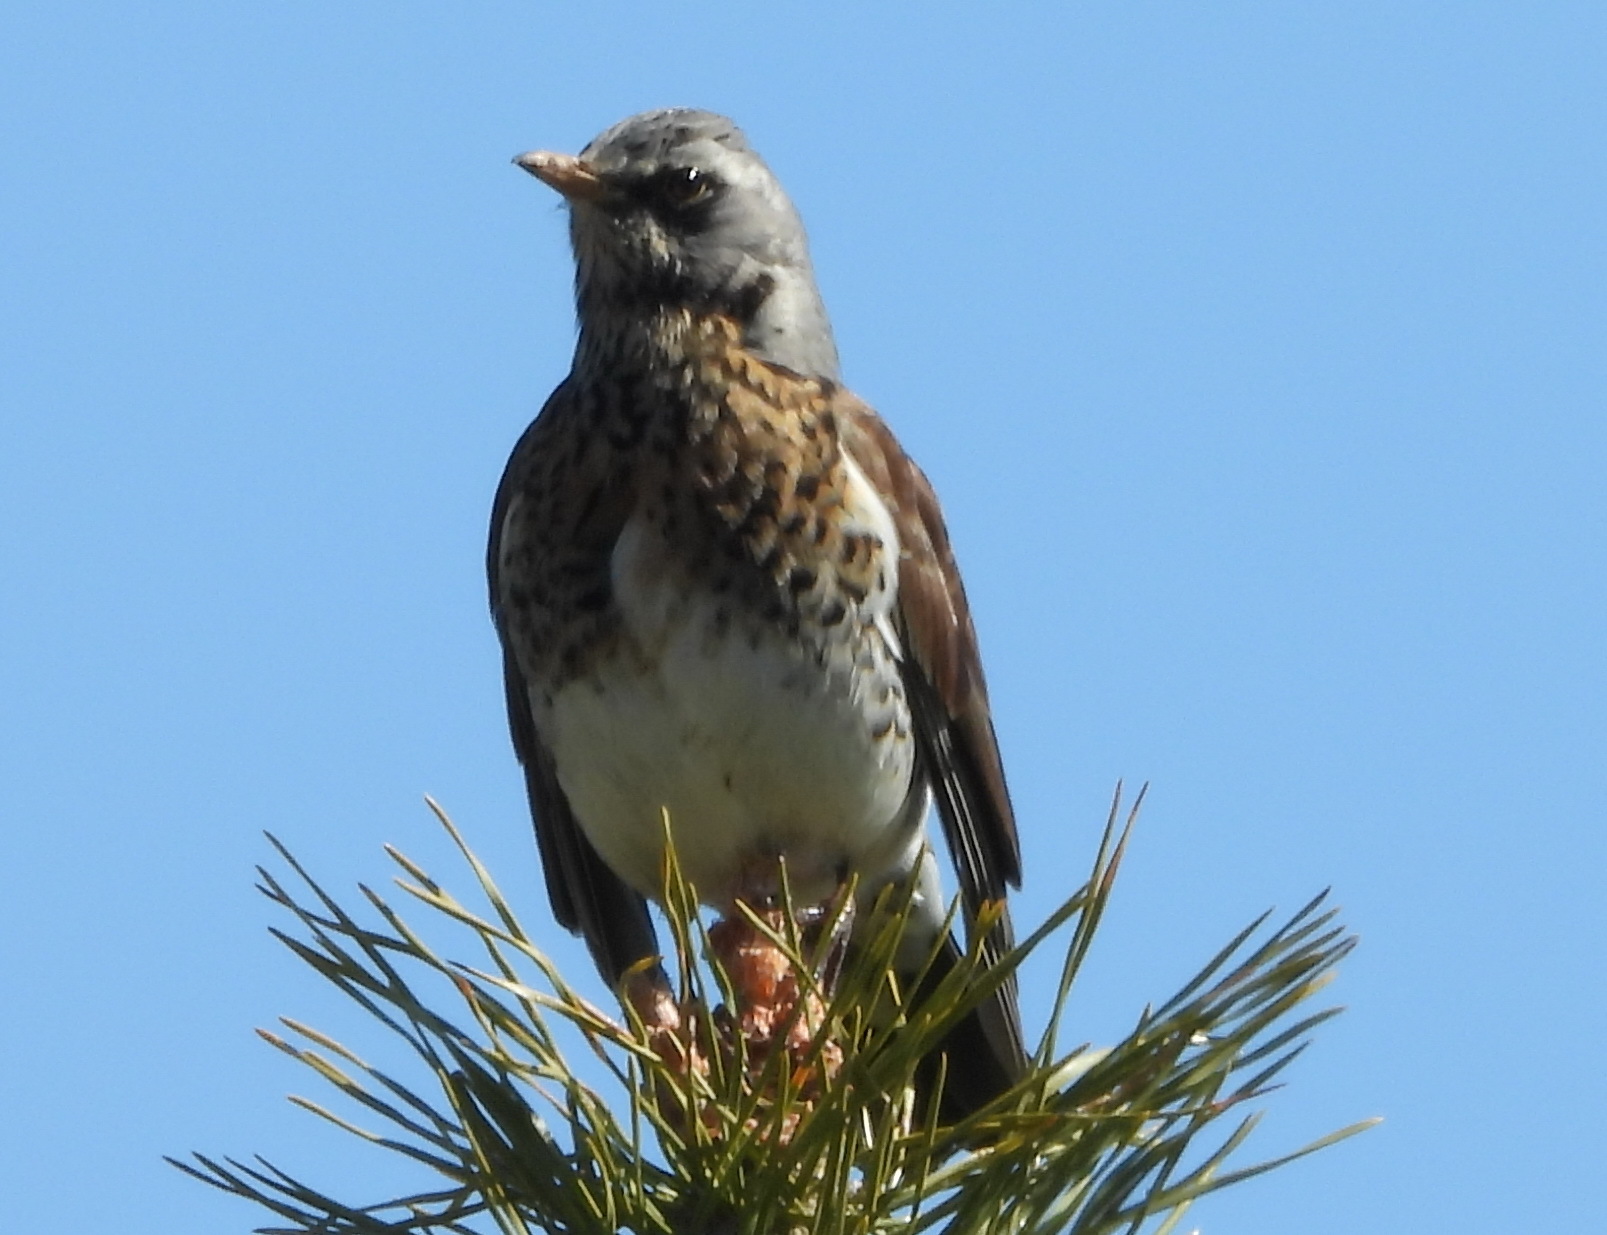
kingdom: Animalia
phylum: Chordata
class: Aves
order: Passeriformes
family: Turdidae
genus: Turdus
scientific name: Turdus pilaris
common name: Fieldfare
